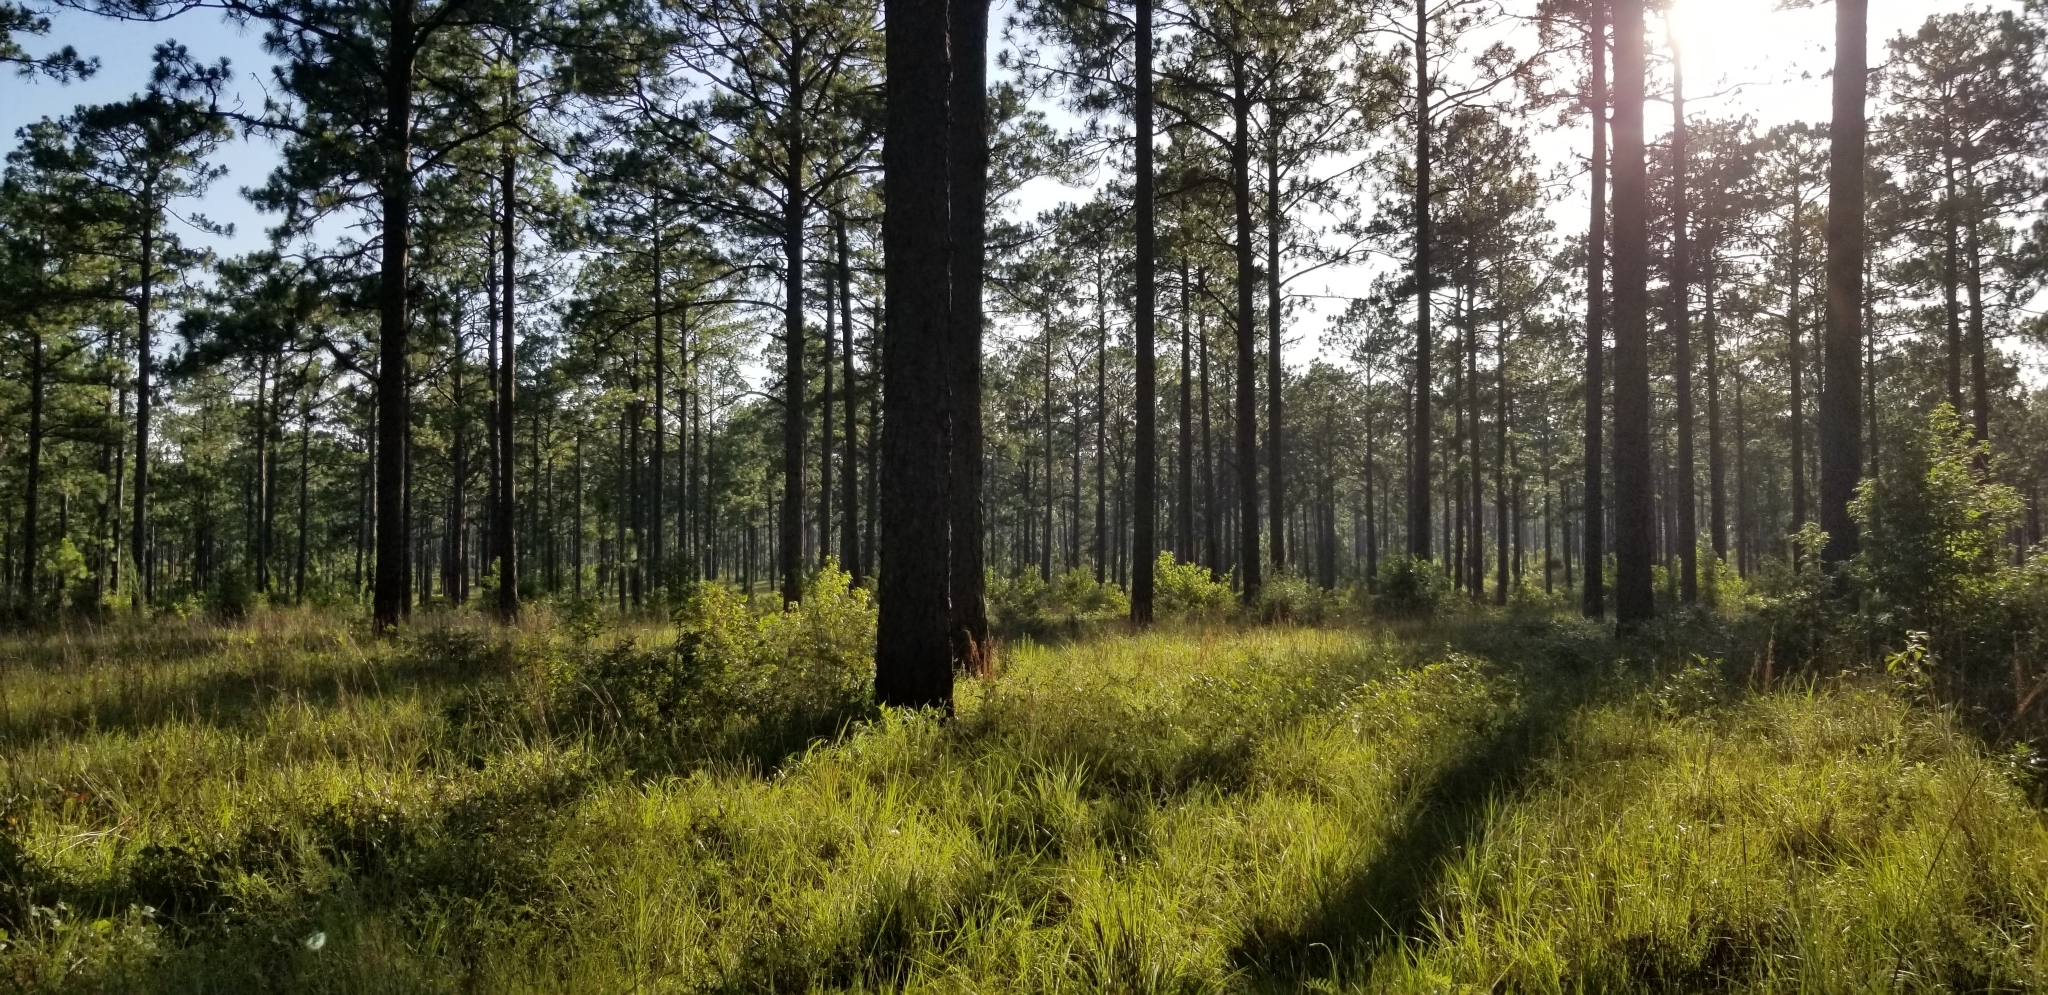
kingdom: Plantae
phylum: Tracheophyta
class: Pinopsida
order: Pinales
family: Pinaceae
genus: Pinus
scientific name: Pinus palustris
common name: Longleaf pine
